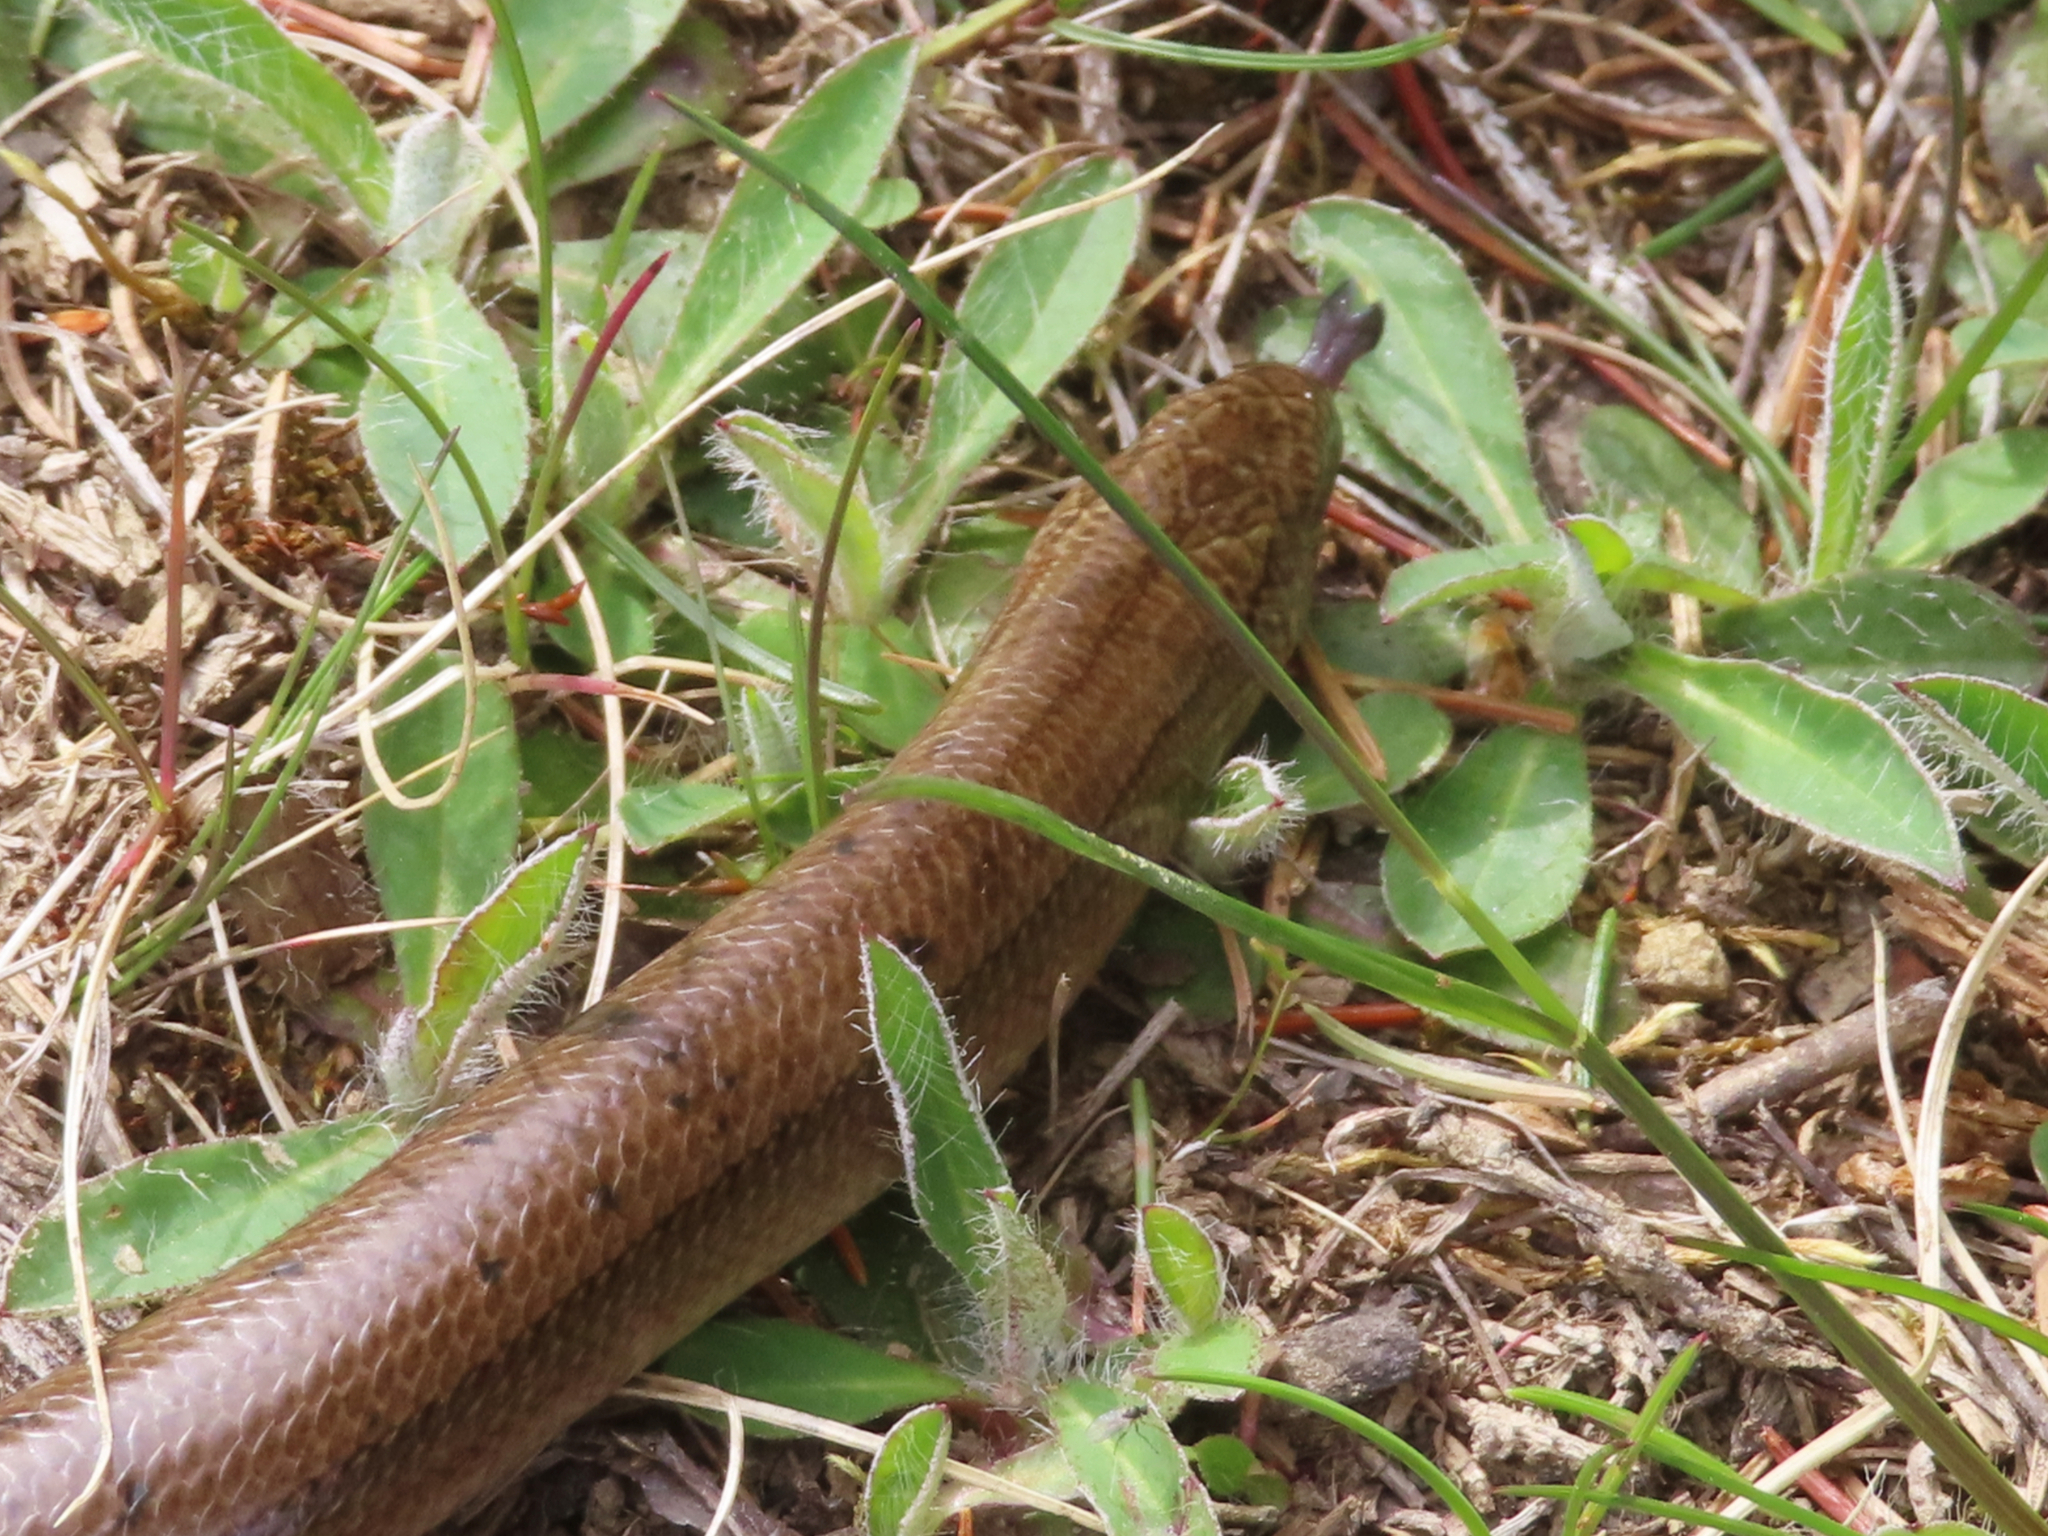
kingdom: Animalia
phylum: Chordata
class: Squamata
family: Anguidae
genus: Anguis
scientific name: Anguis colchica
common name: Slow worm
